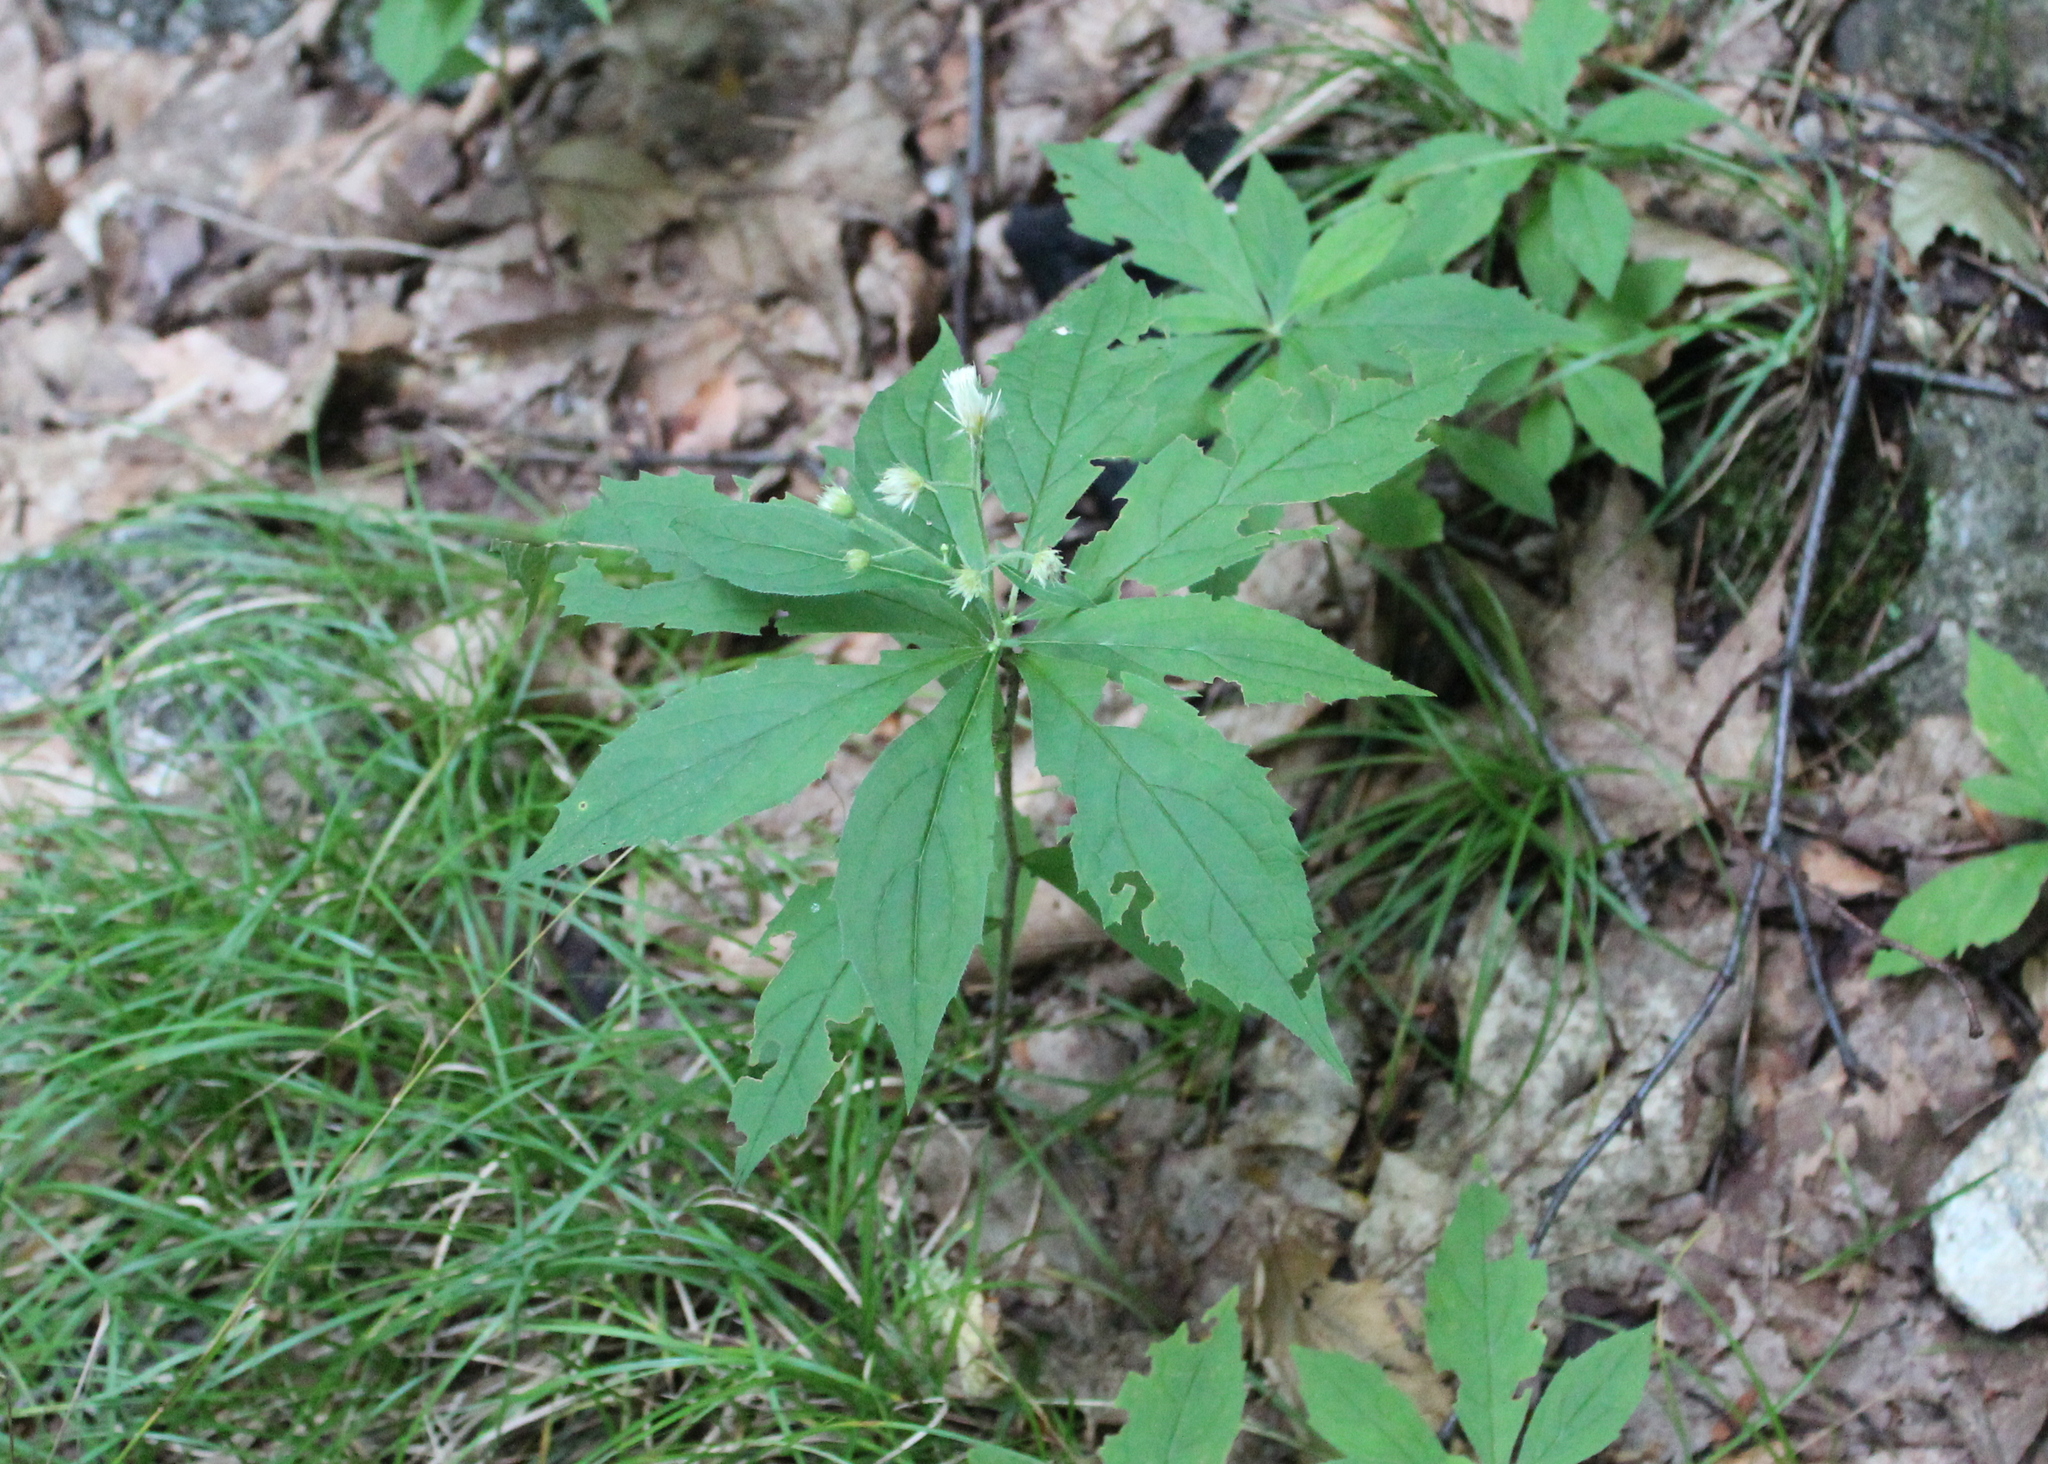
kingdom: Plantae
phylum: Tracheophyta
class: Magnoliopsida
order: Asterales
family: Asteraceae
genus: Oclemena
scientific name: Oclemena acuminata
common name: Mountain aster
